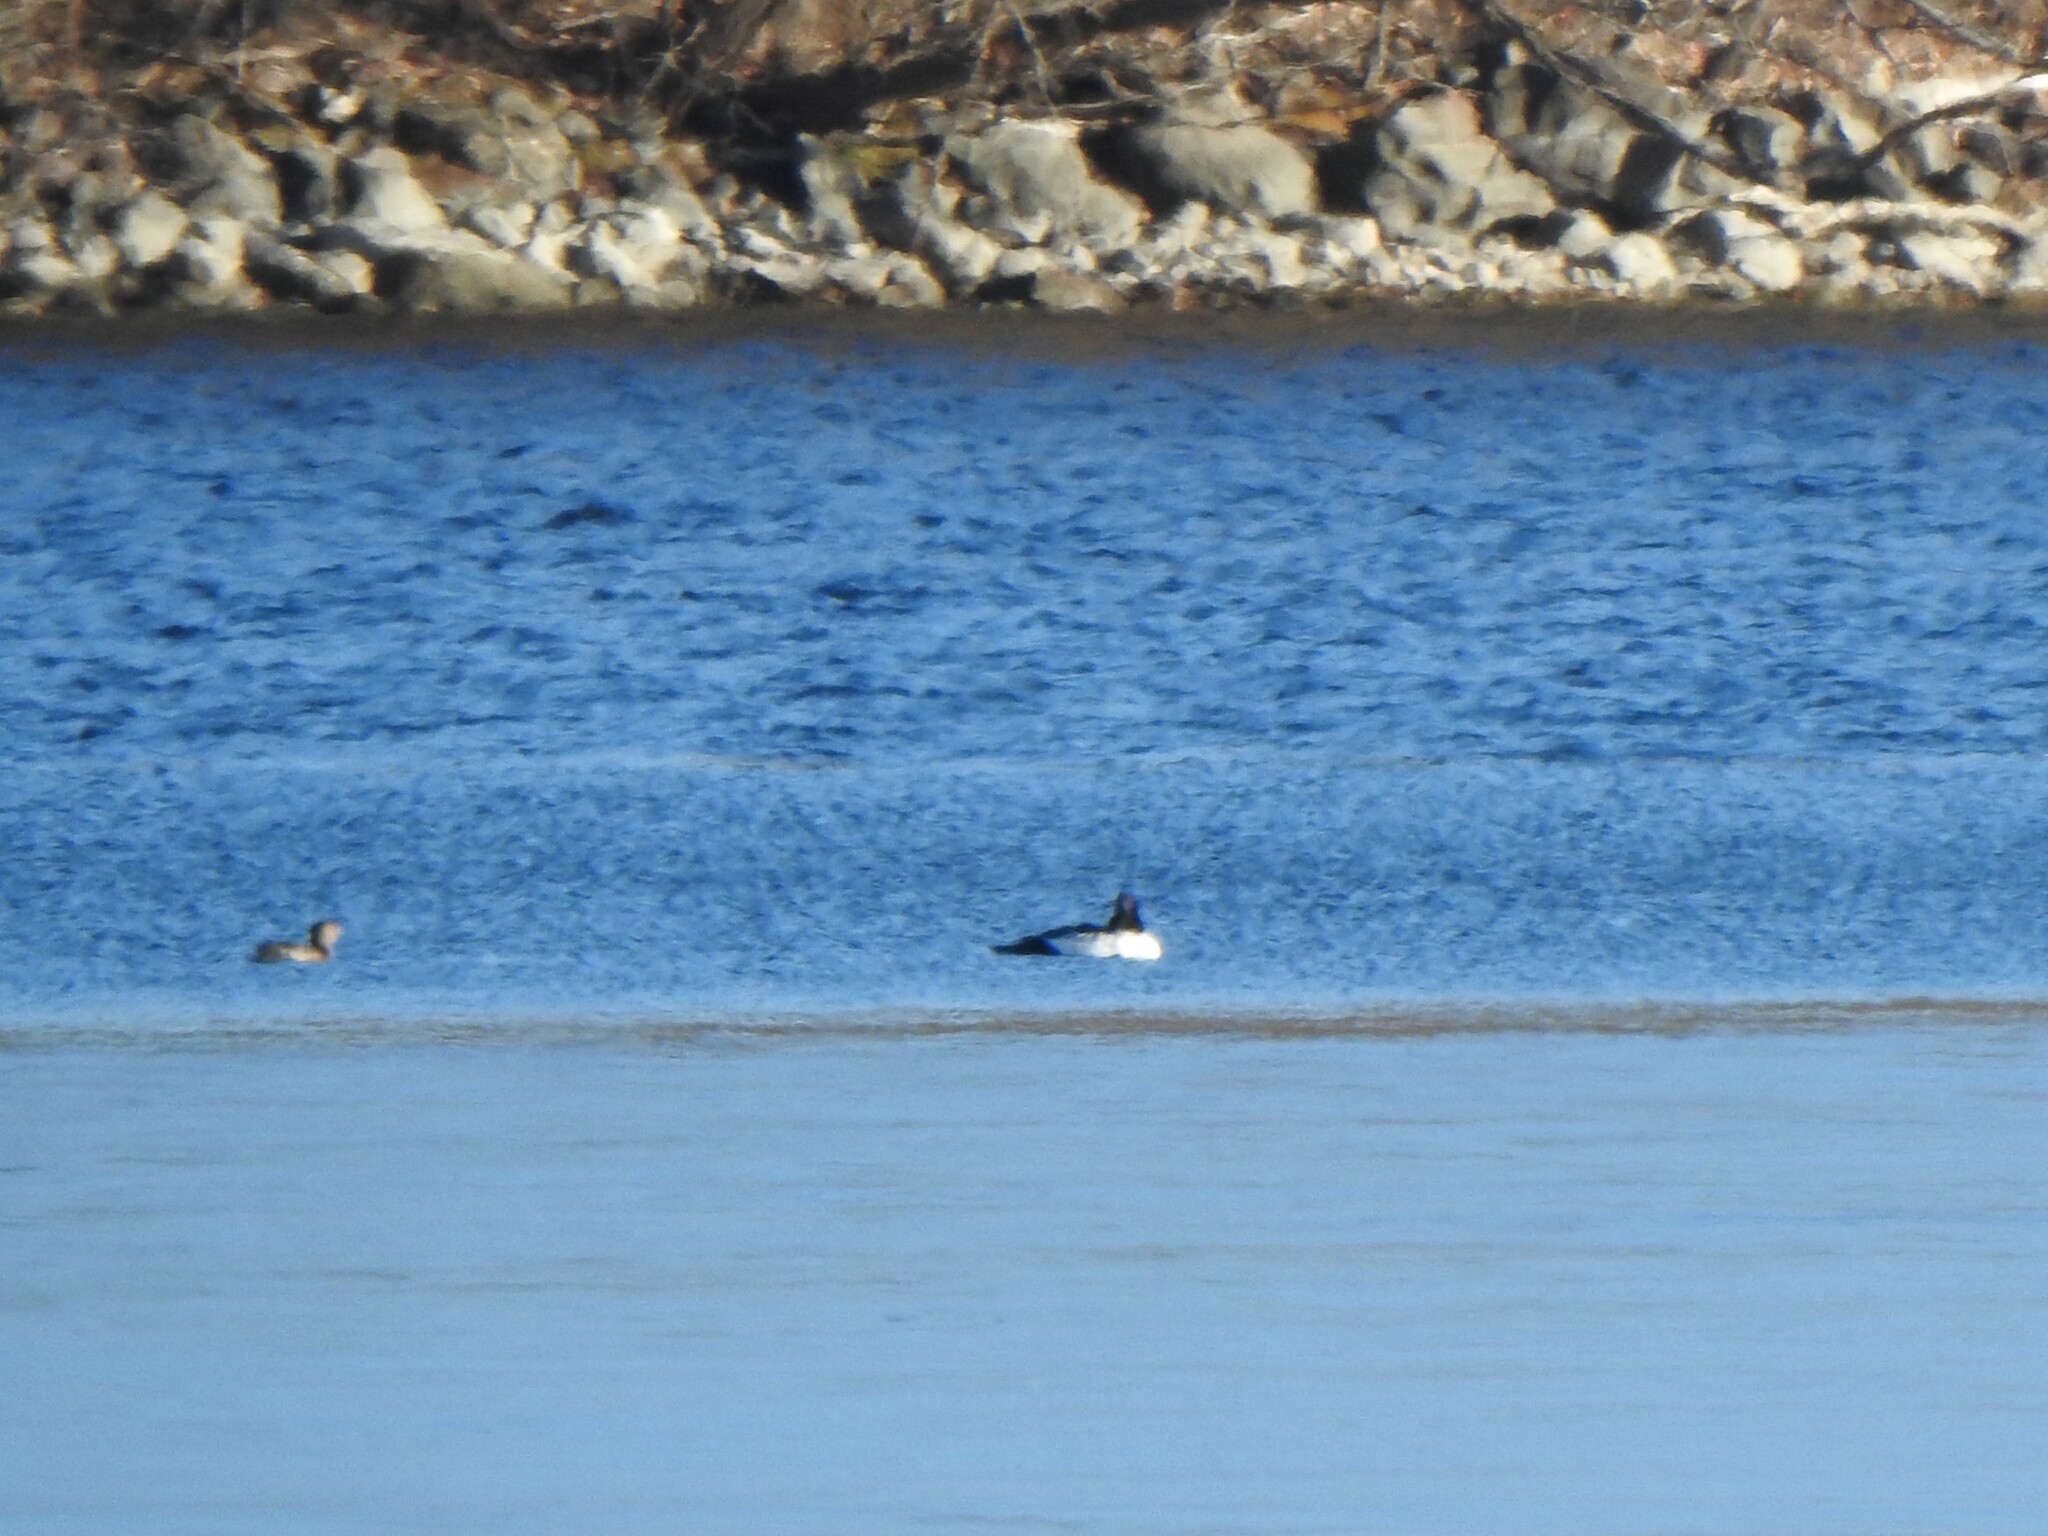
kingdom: Animalia
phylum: Chordata
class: Aves
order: Podicipediformes
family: Podicipedidae
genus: Podilymbus
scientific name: Podilymbus podiceps
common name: Pied-billed grebe
